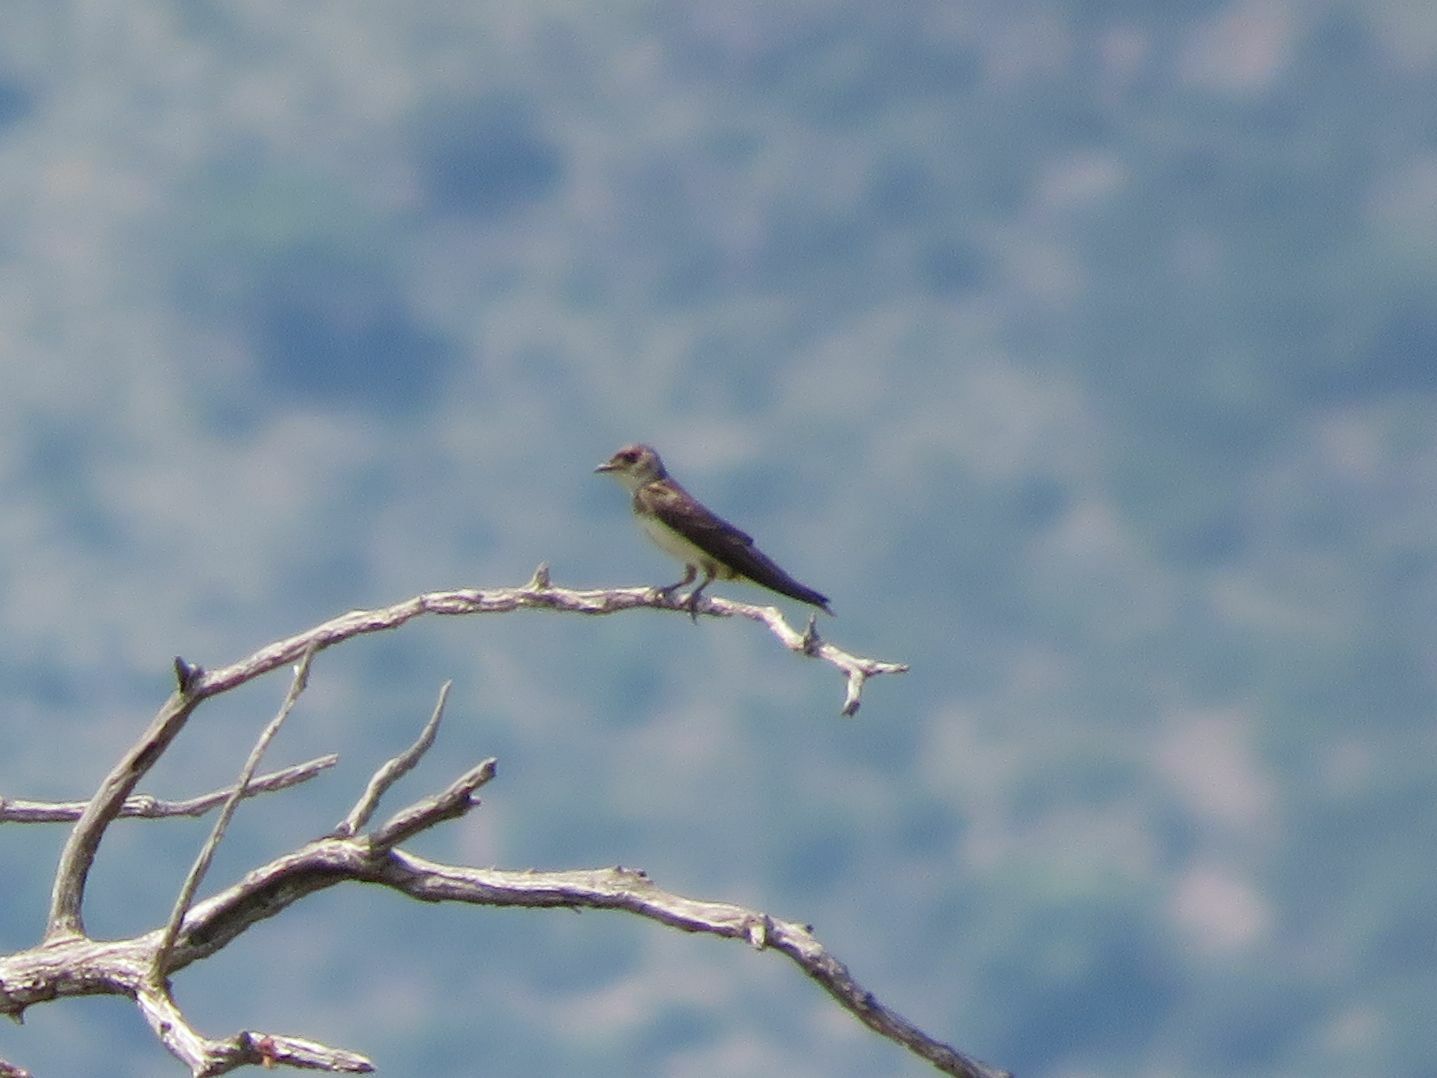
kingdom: Animalia
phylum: Chordata
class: Aves
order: Passeriformes
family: Hirundinidae
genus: Progne
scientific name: Progne tapera
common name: Brown-chested martin
